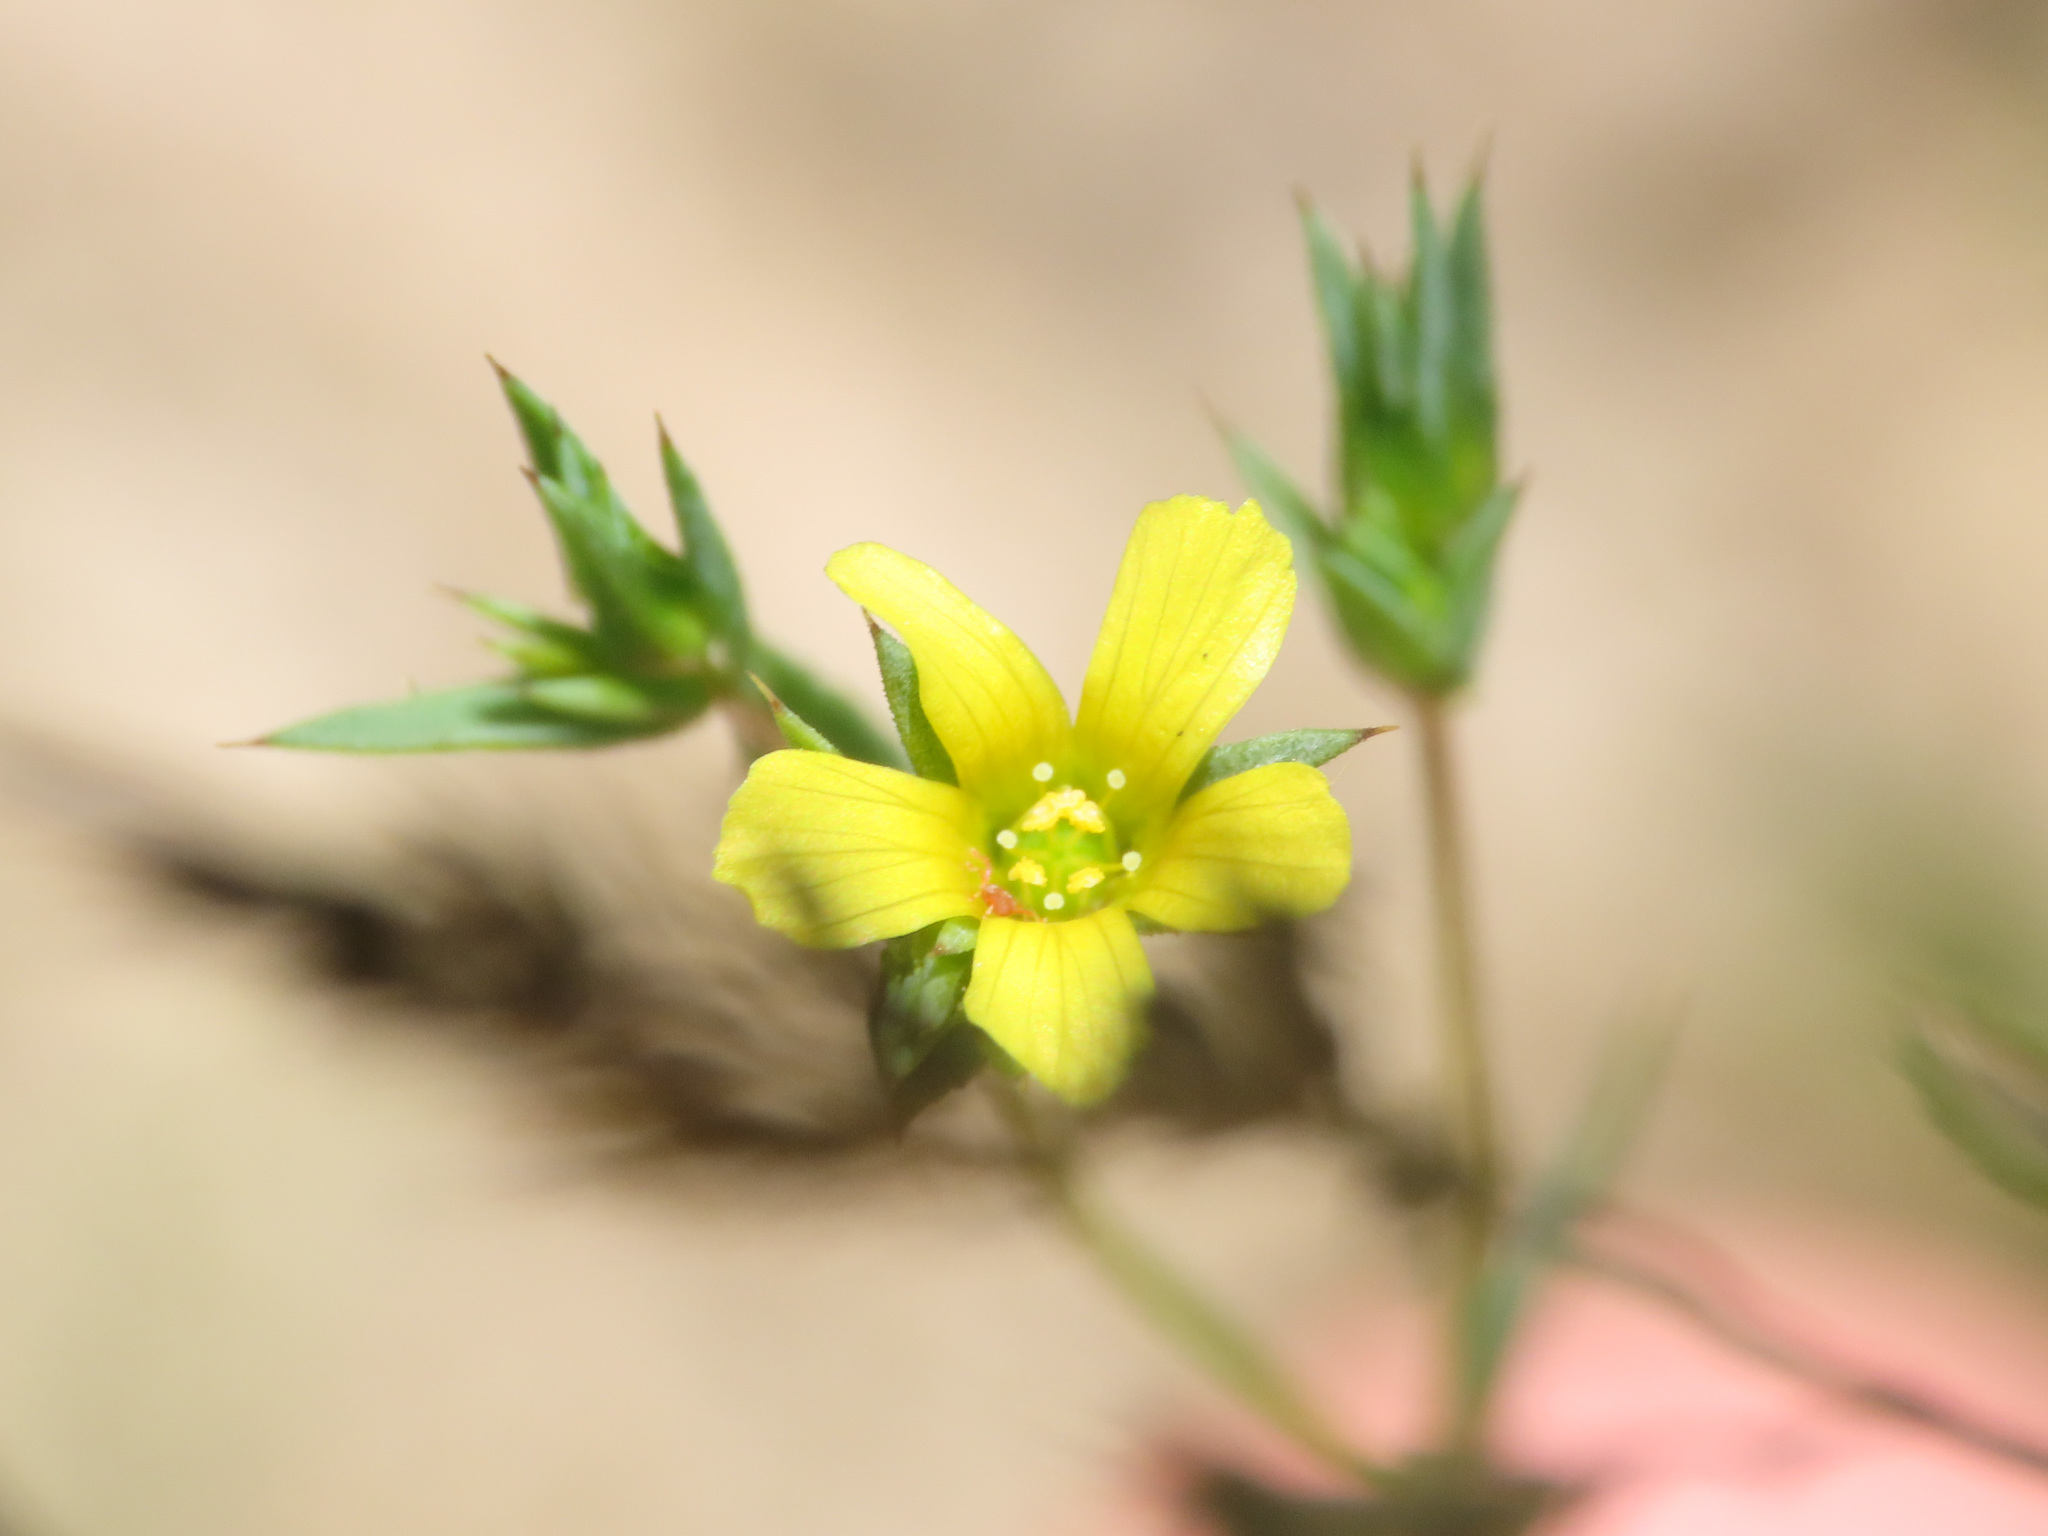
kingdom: Plantae
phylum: Tracheophyta
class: Magnoliopsida
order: Malpighiales
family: Linaceae
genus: Linum
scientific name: Linum corymbulosum
